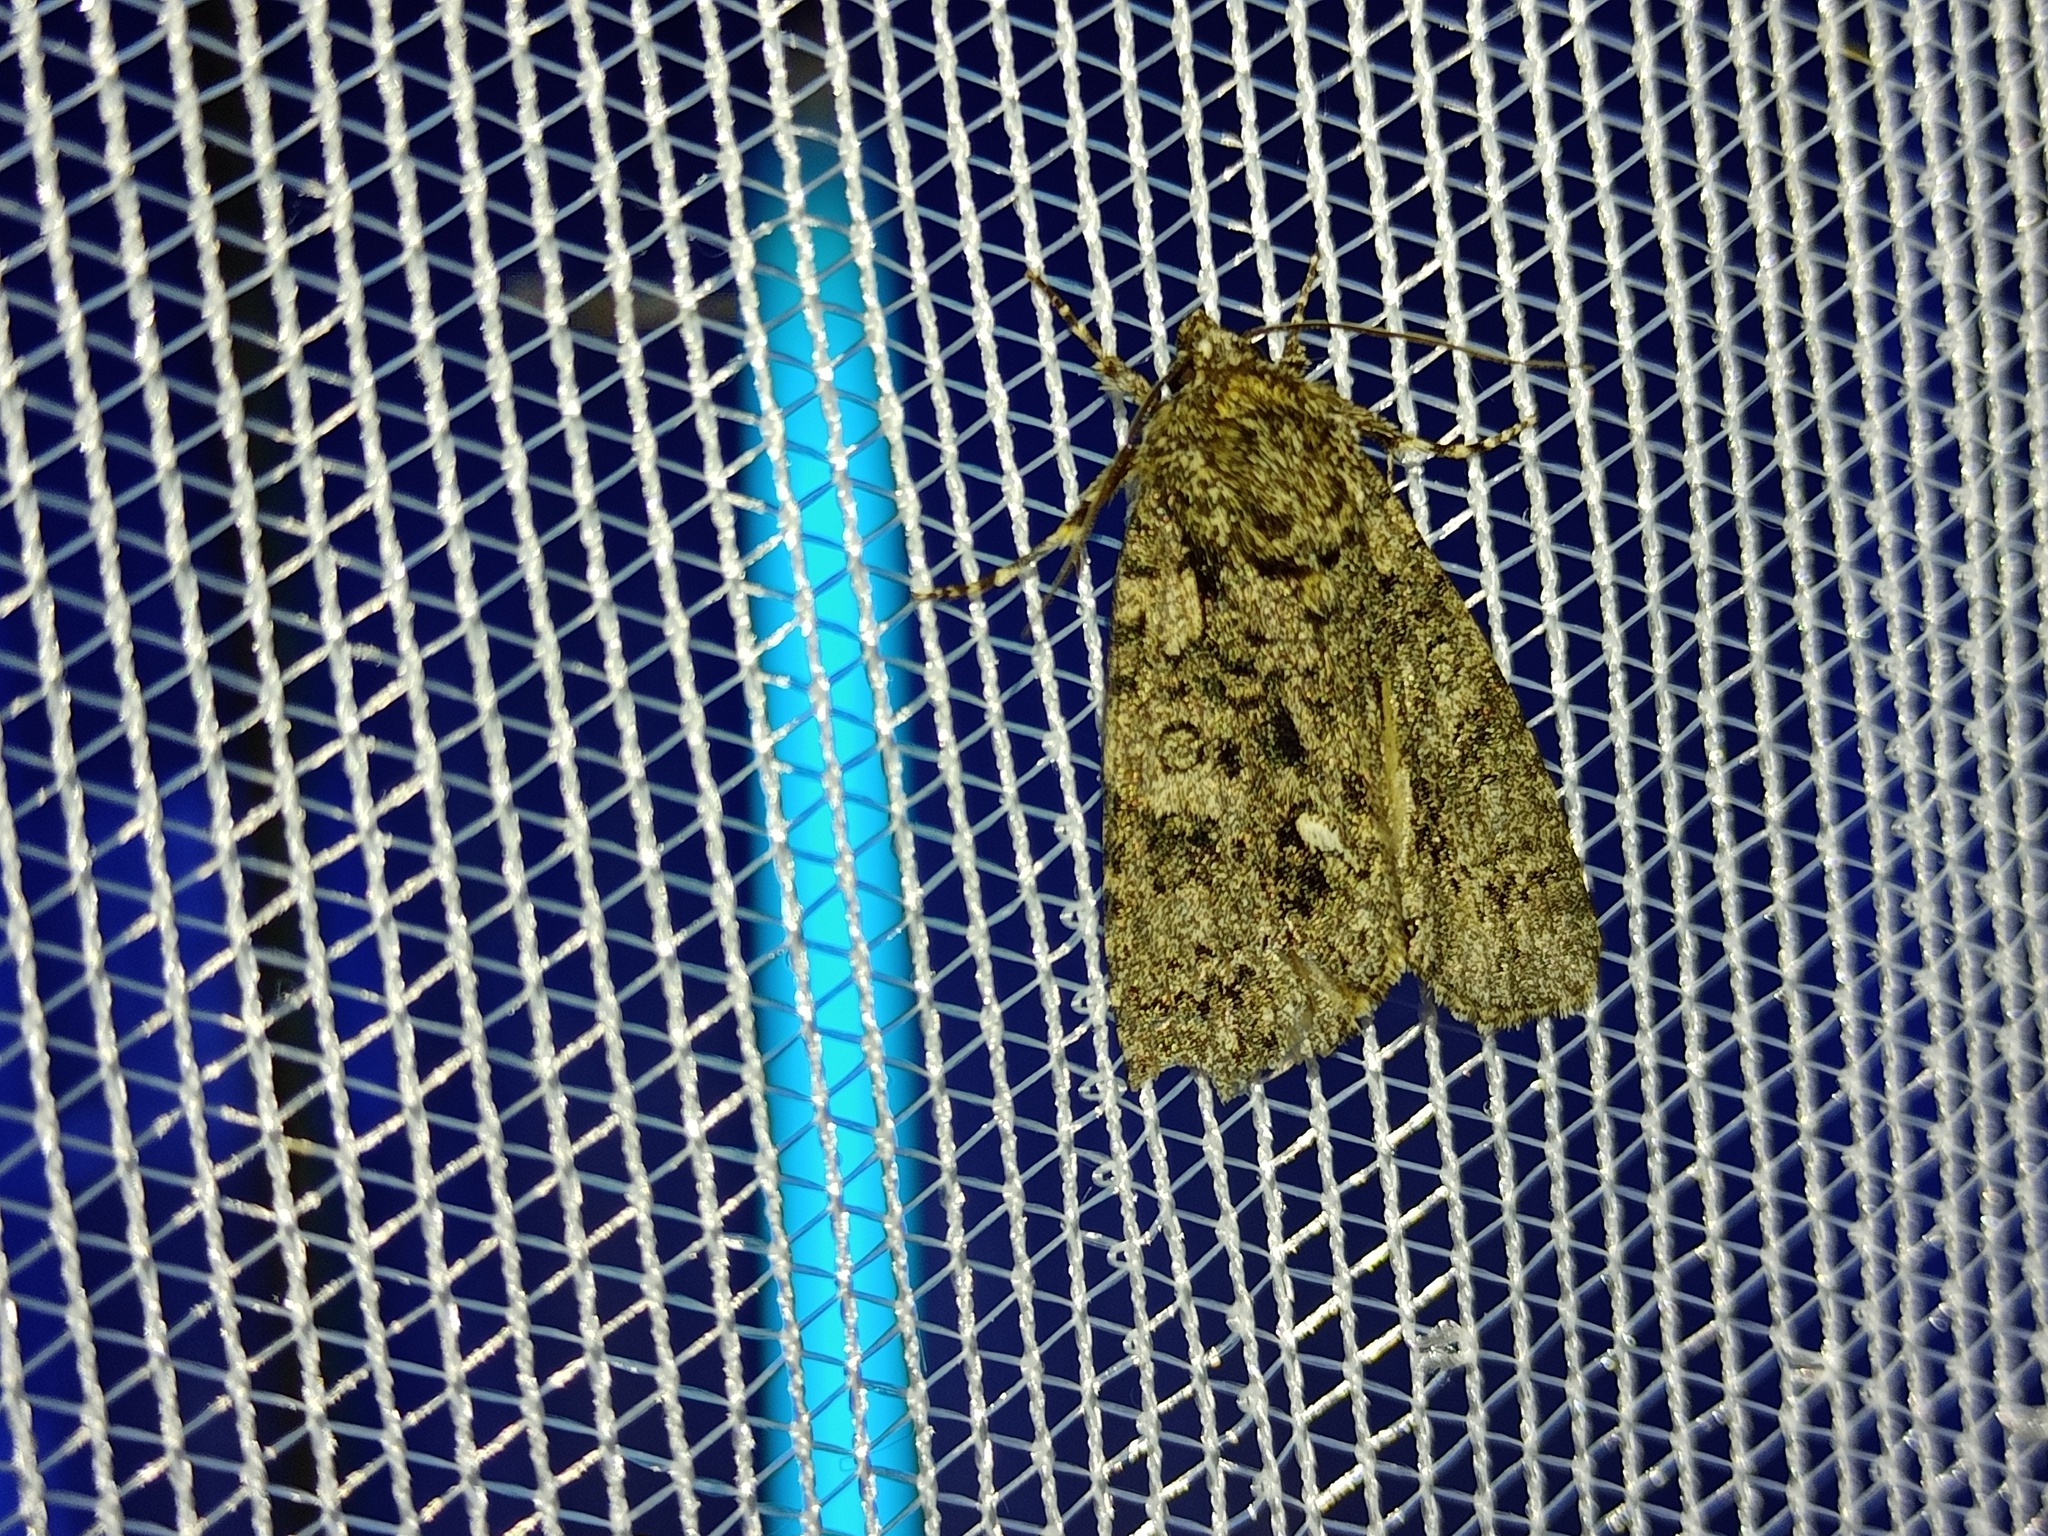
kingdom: Animalia
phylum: Arthropoda
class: Insecta
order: Lepidoptera
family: Noctuidae
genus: Acronicta
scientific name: Acronicta rumicis
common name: Knot grass
